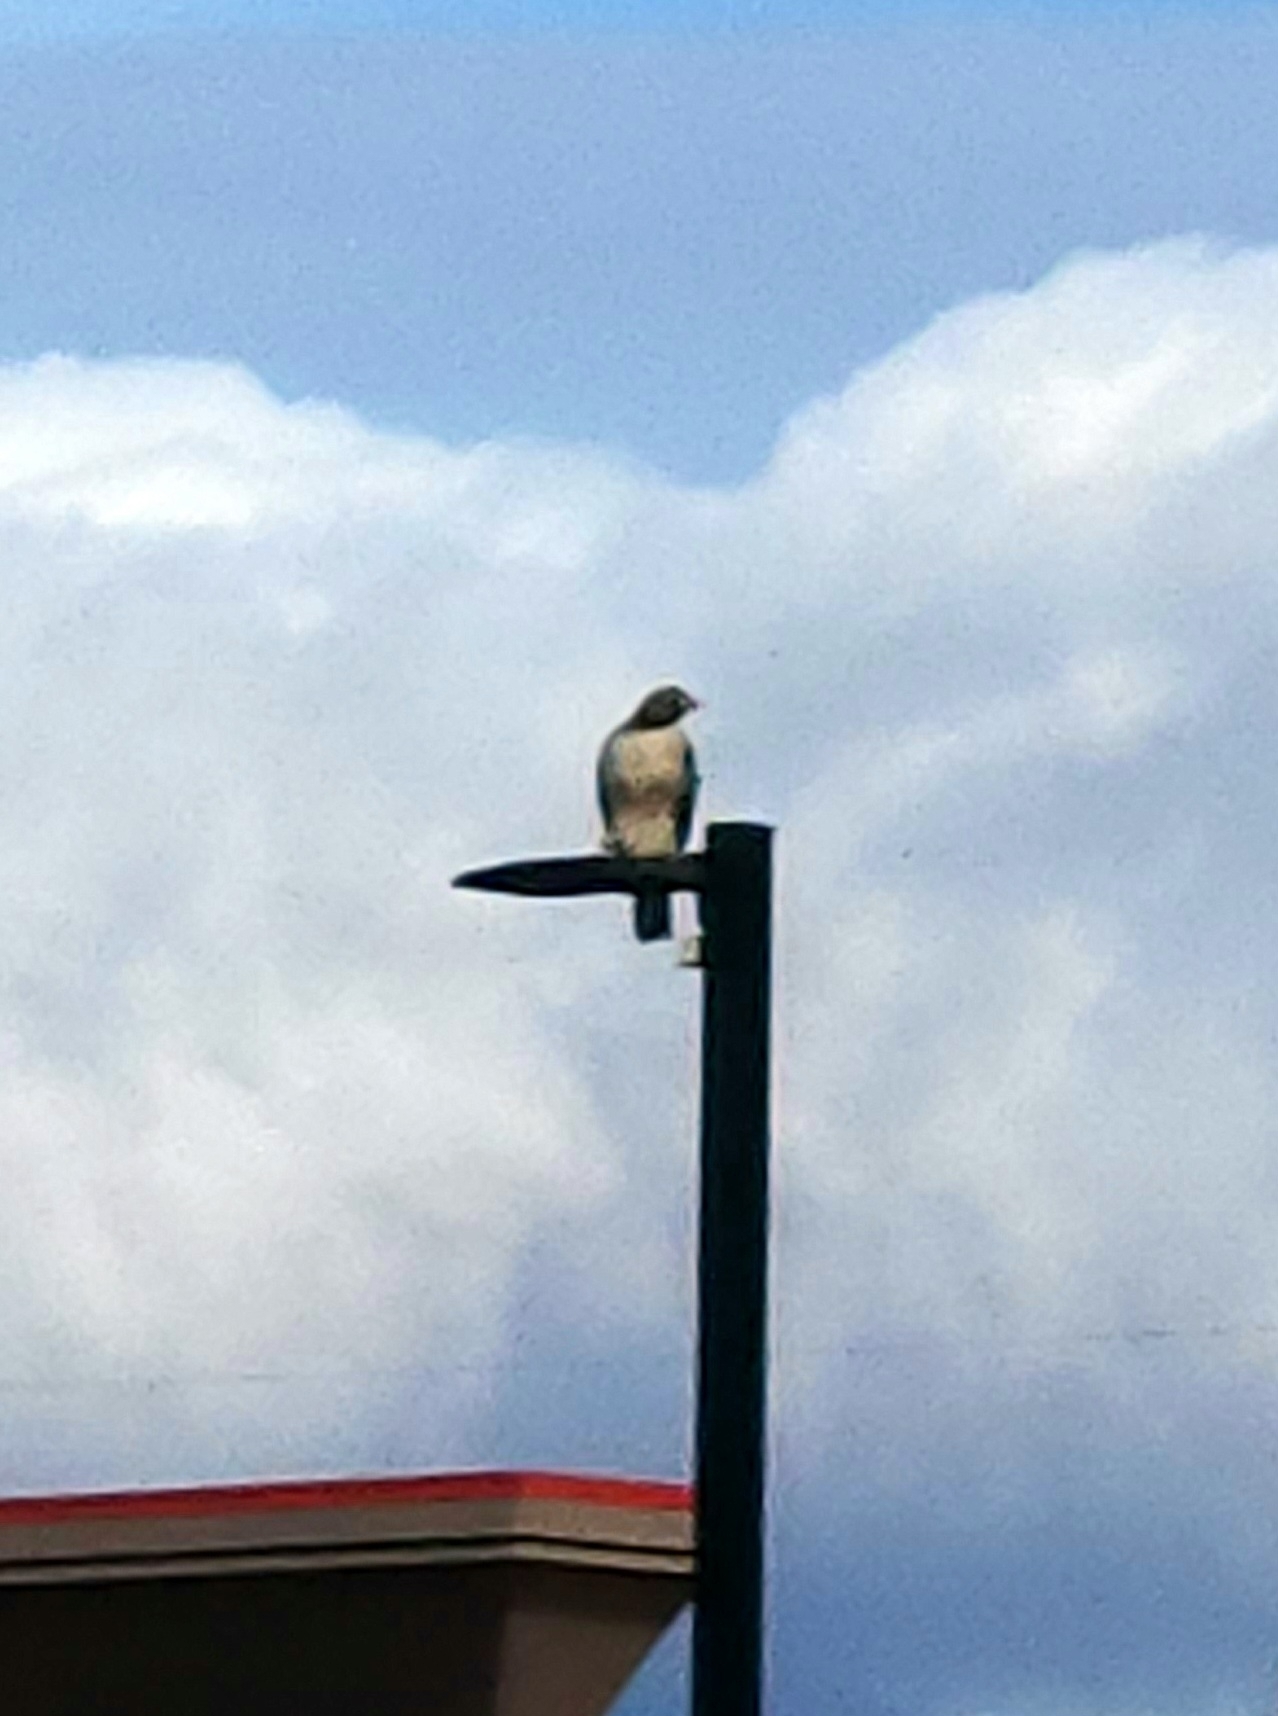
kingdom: Animalia
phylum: Chordata
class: Aves
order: Accipitriformes
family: Accipitridae
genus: Buteo
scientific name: Buteo jamaicensis
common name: Red-tailed hawk
